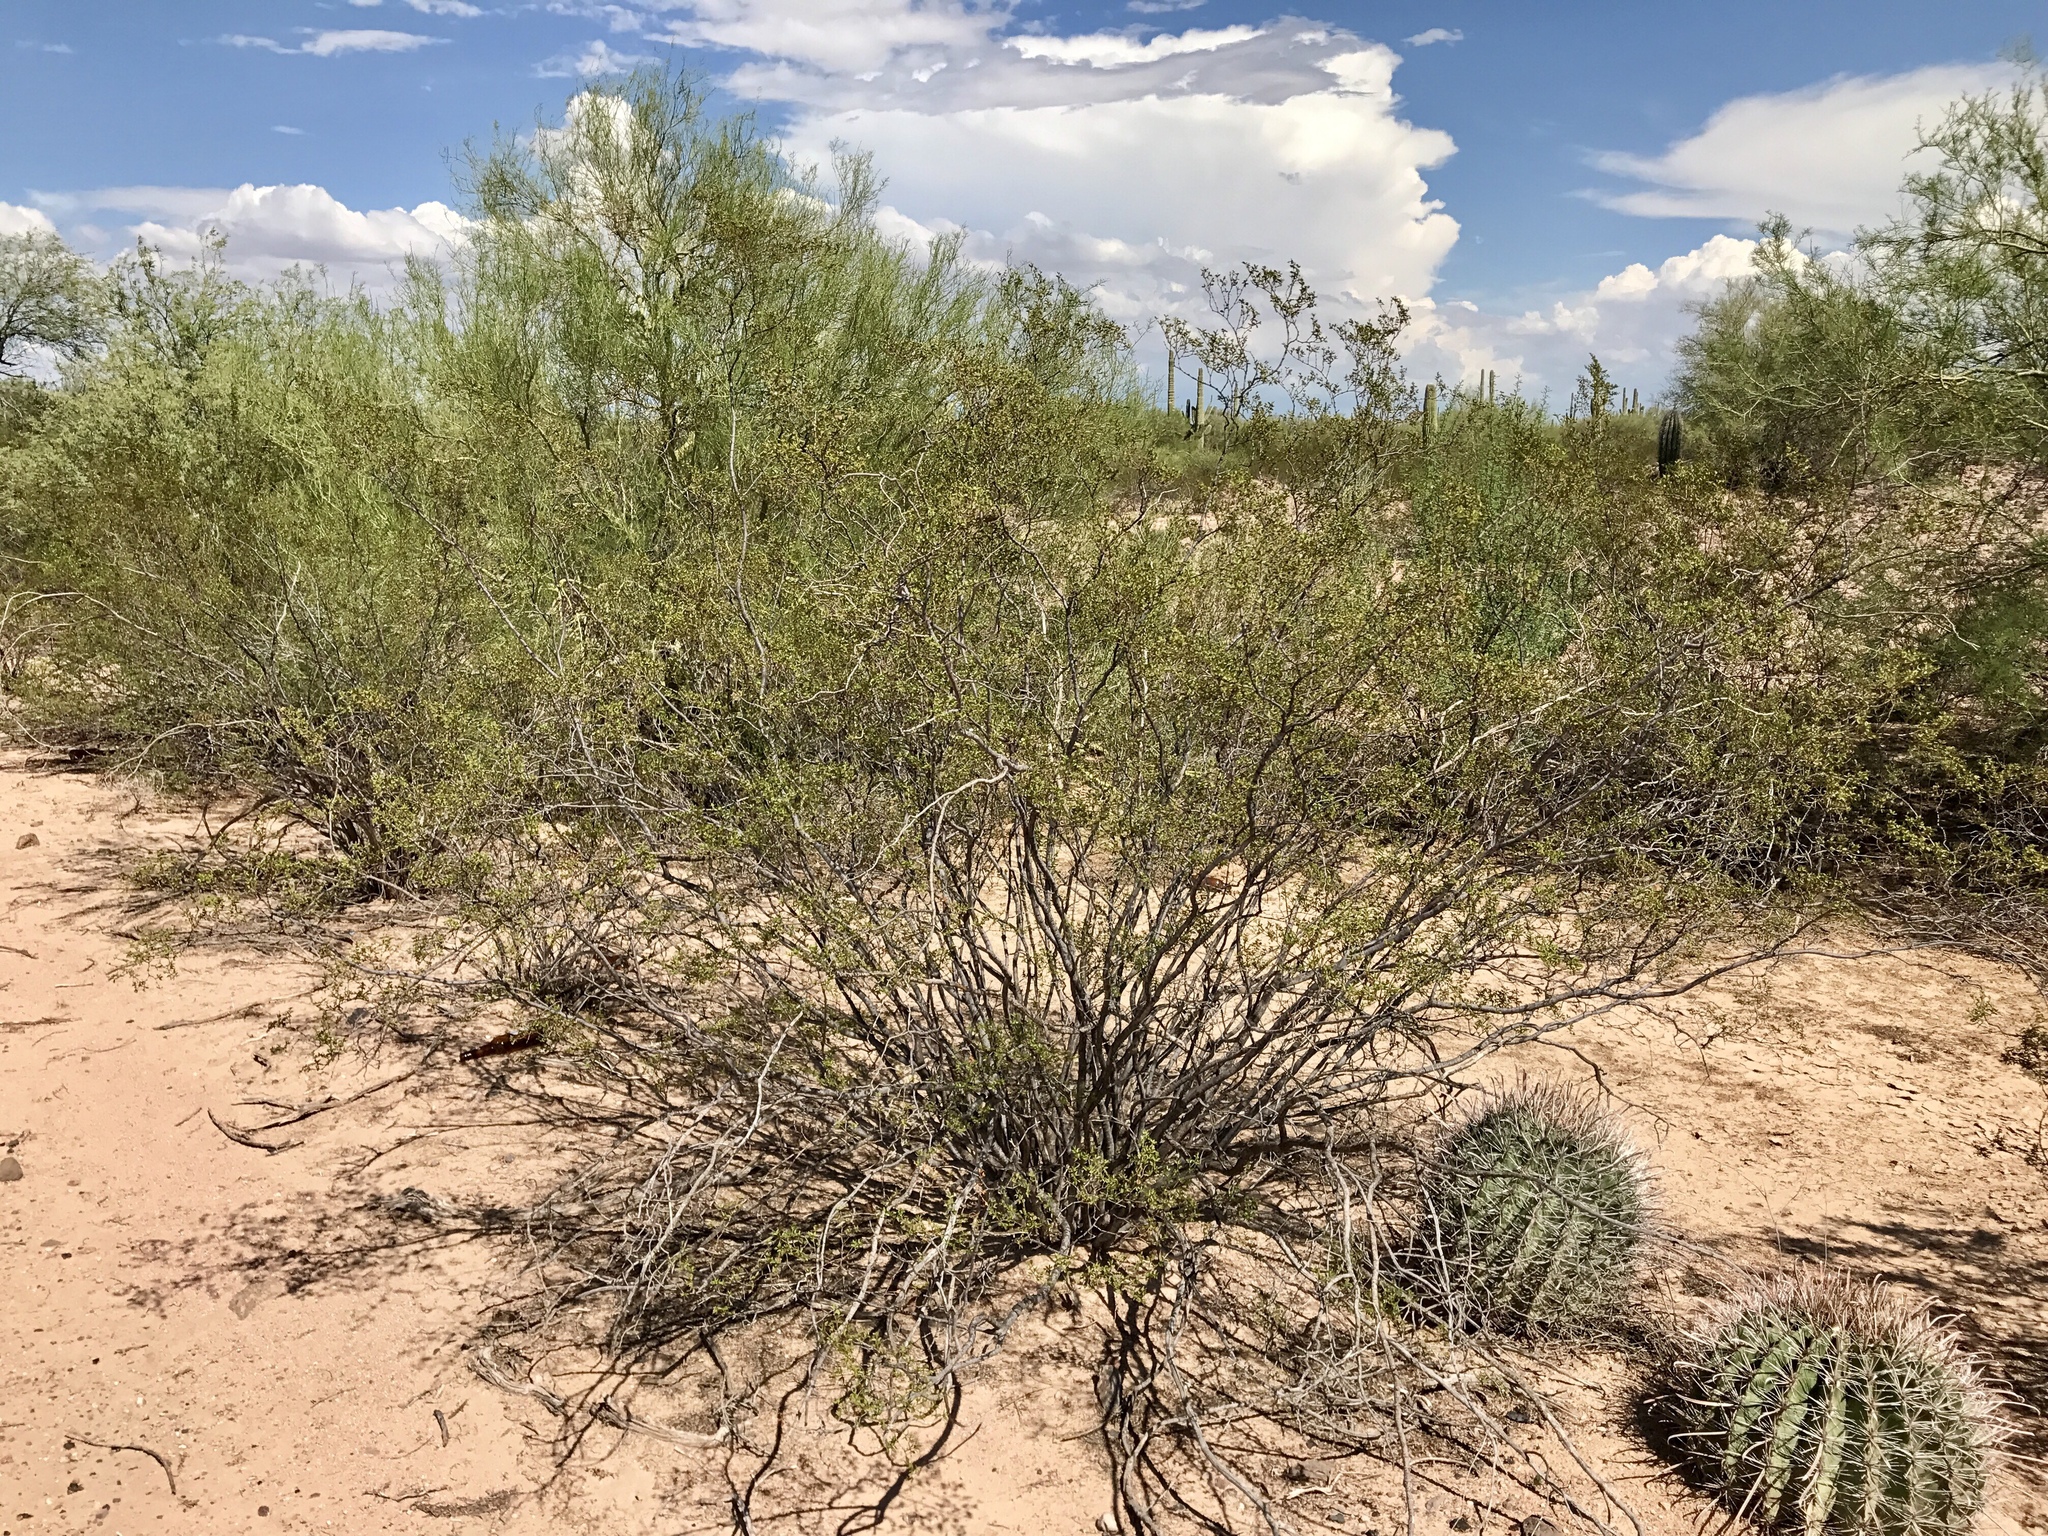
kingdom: Plantae
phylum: Tracheophyta
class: Magnoliopsida
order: Zygophyllales
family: Zygophyllaceae
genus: Larrea
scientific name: Larrea tridentata
